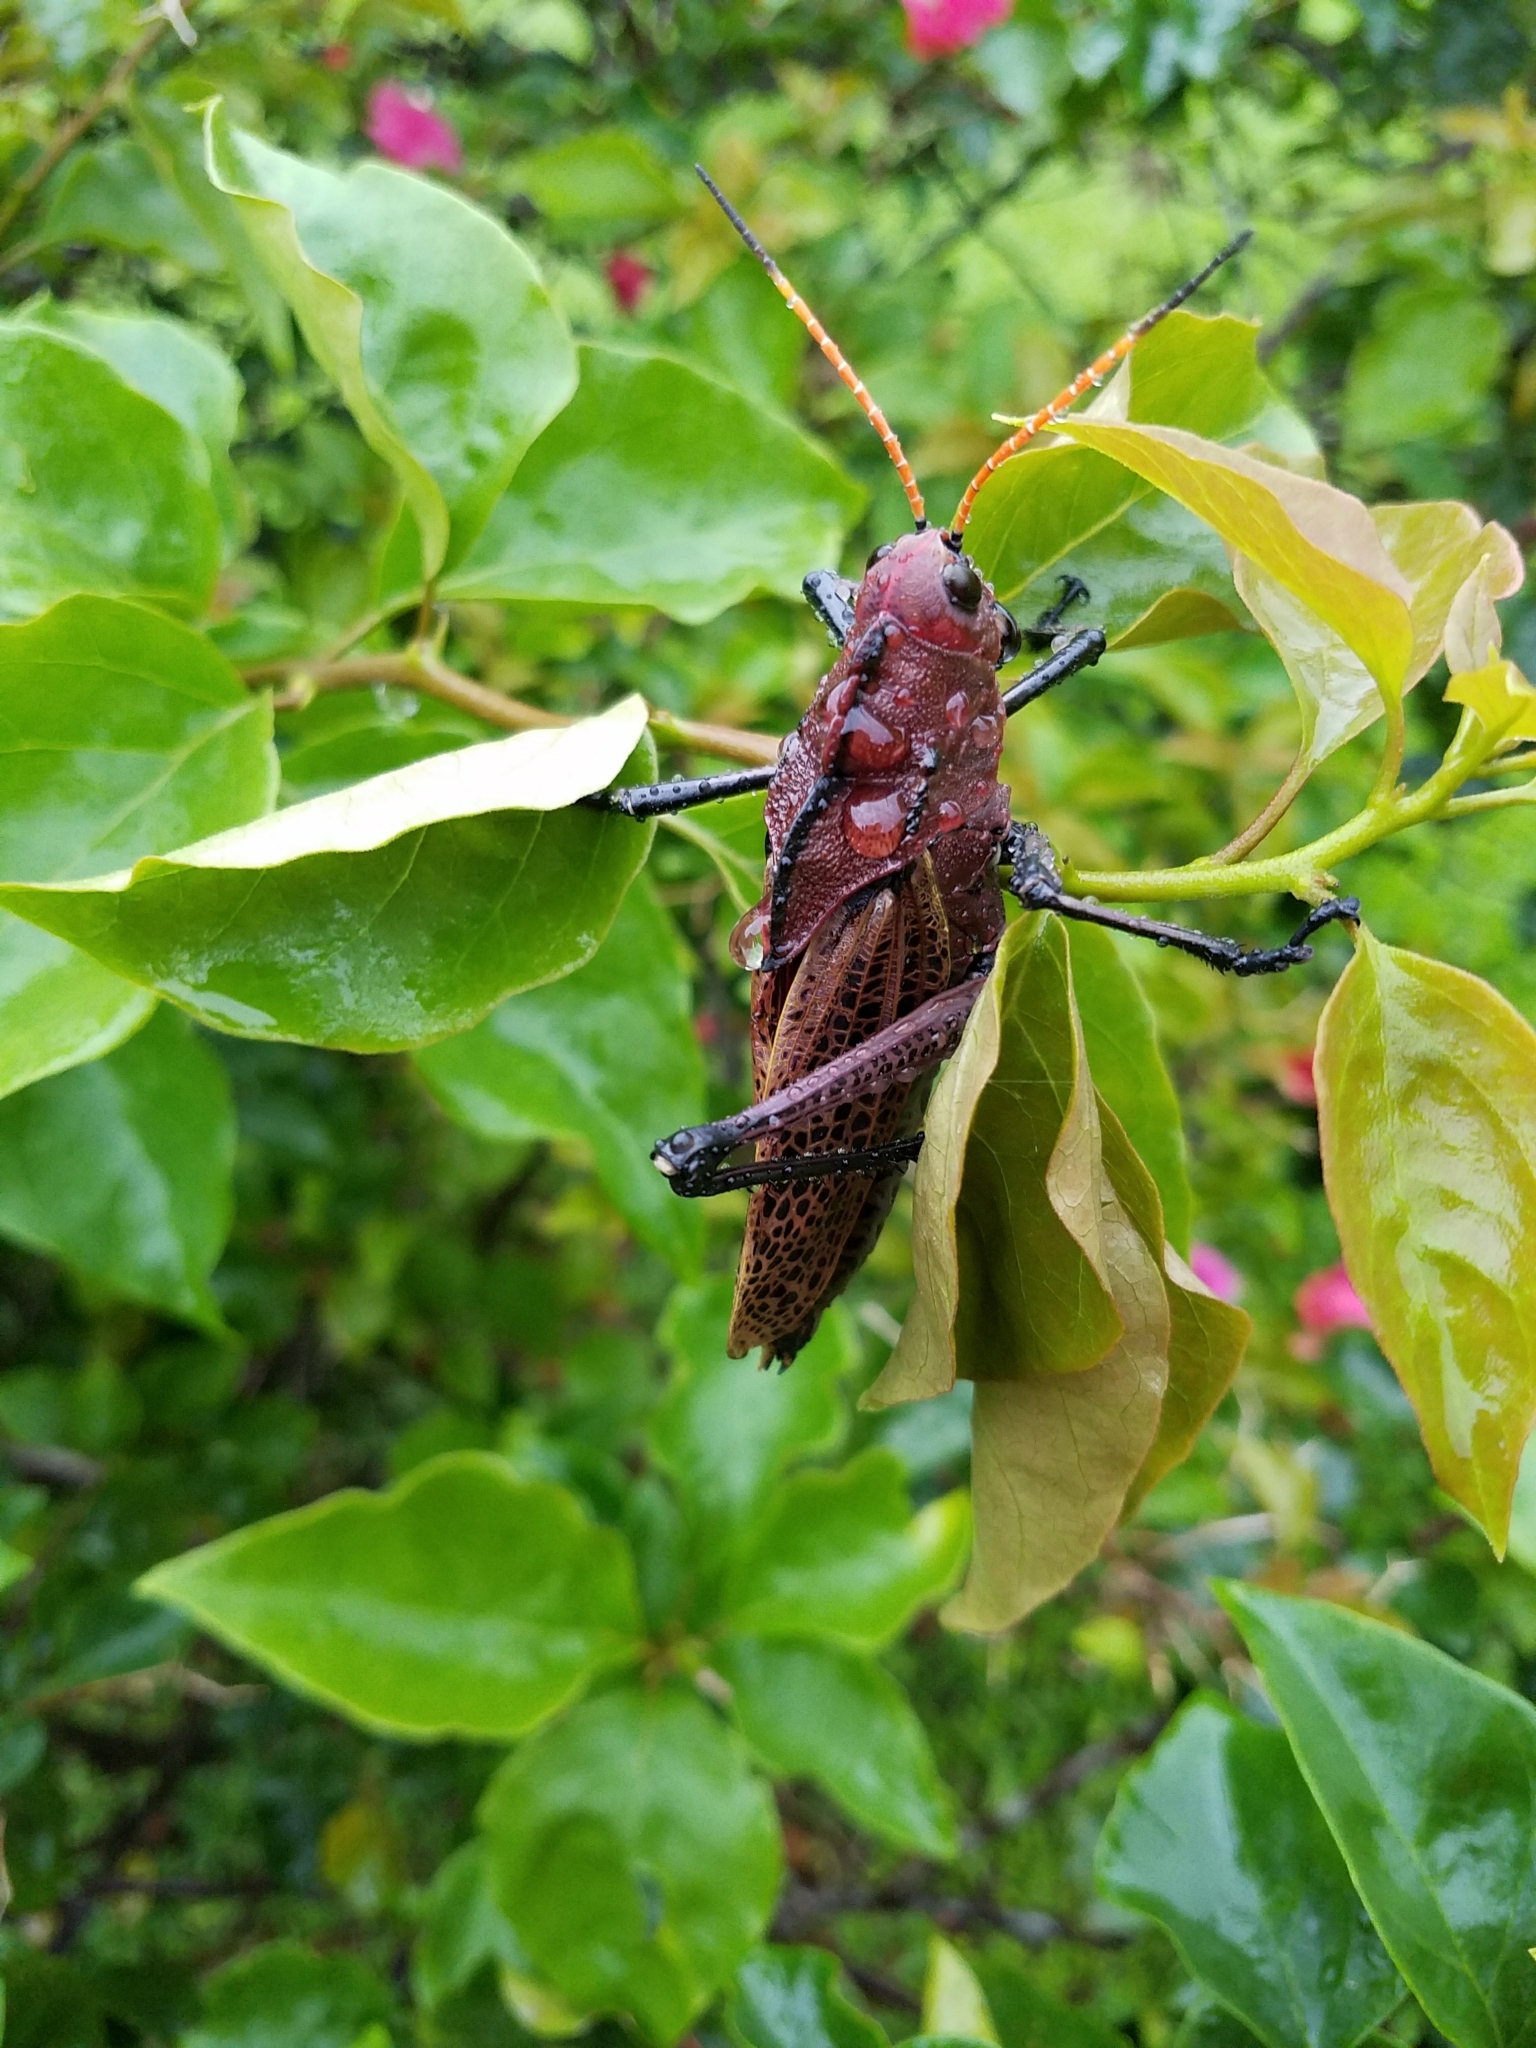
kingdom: Animalia
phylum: Arthropoda
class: Insecta
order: Orthoptera
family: Romaleidae
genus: Romalea
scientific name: Romalea
